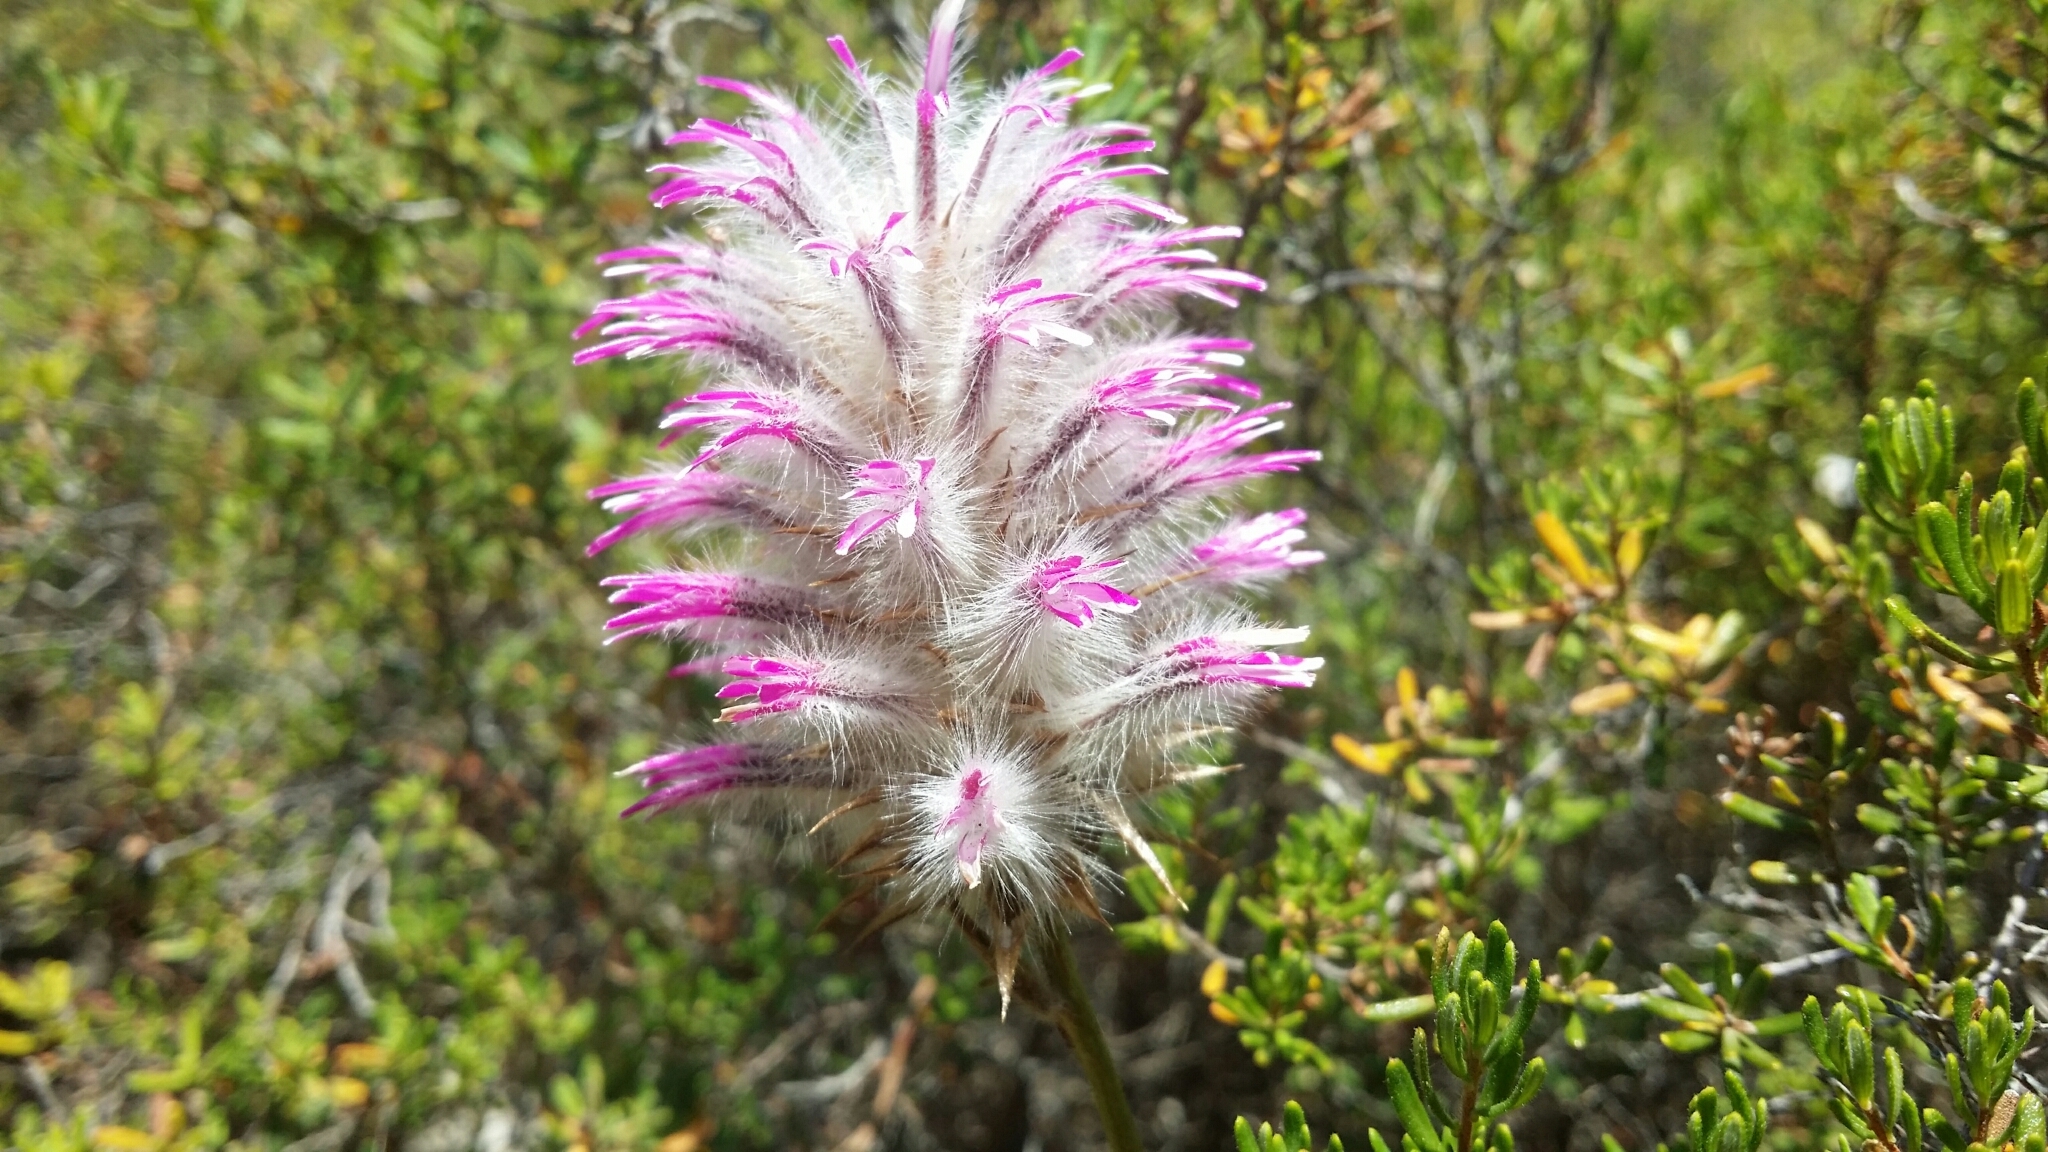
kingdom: Plantae
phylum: Tracheophyta
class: Magnoliopsida
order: Caryophyllales
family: Amaranthaceae
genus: Ptilotus
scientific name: Ptilotus manglesii
